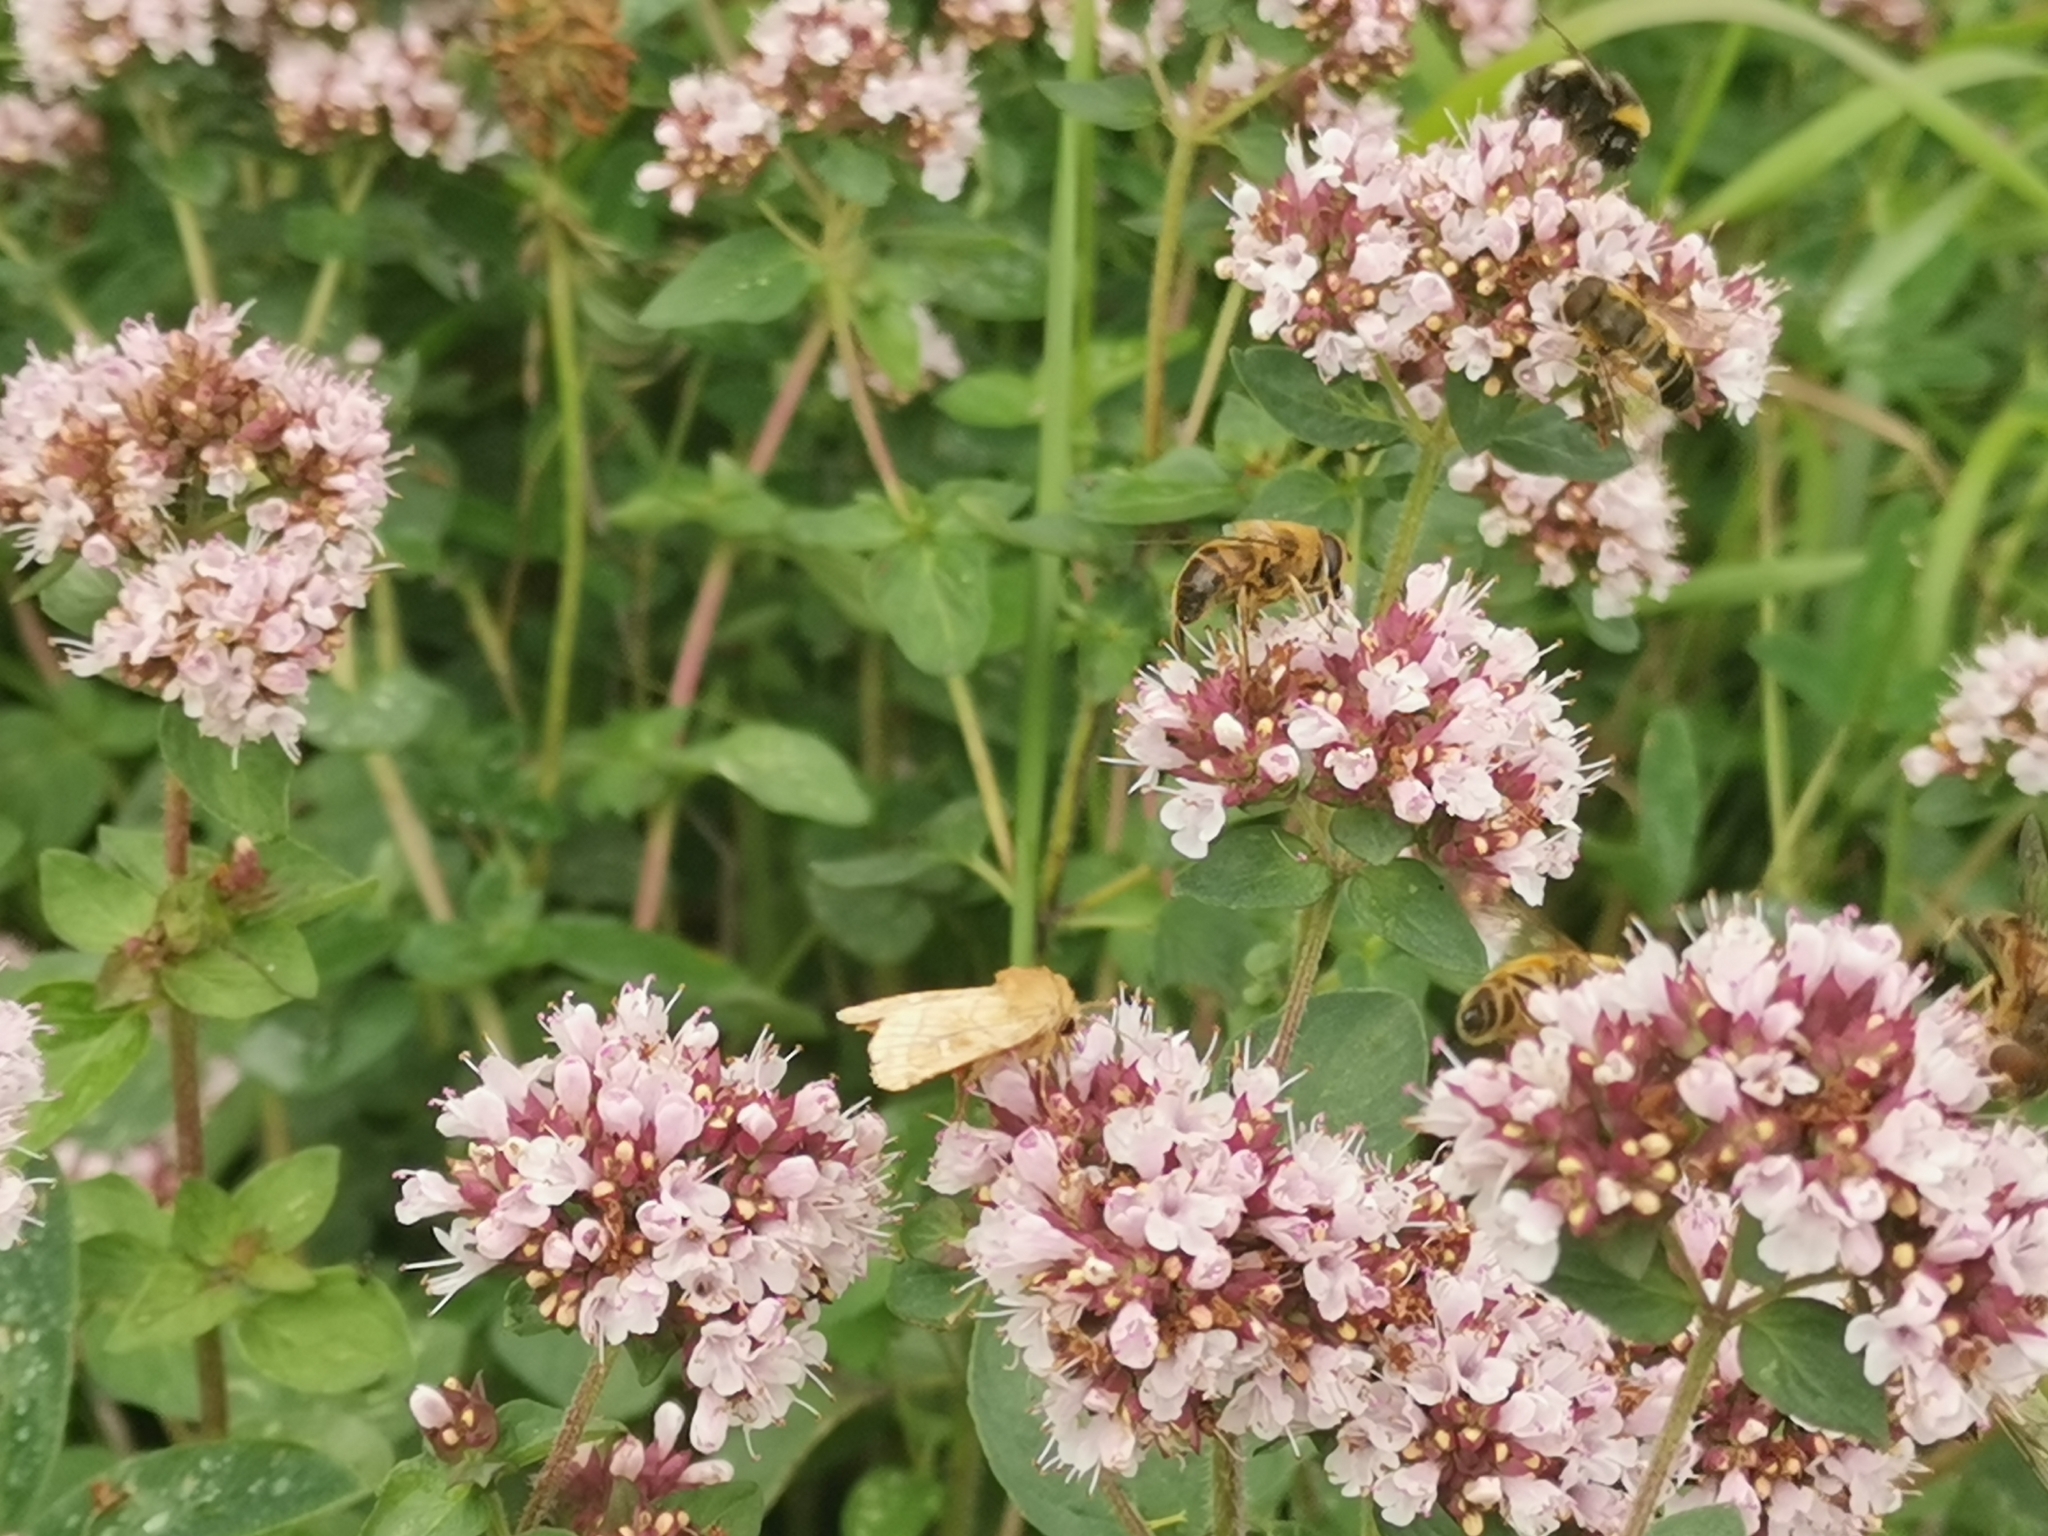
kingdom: Plantae
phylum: Tracheophyta
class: Magnoliopsida
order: Lamiales
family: Lamiaceae
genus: Origanum
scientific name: Origanum vulgare
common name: Wild marjoram
